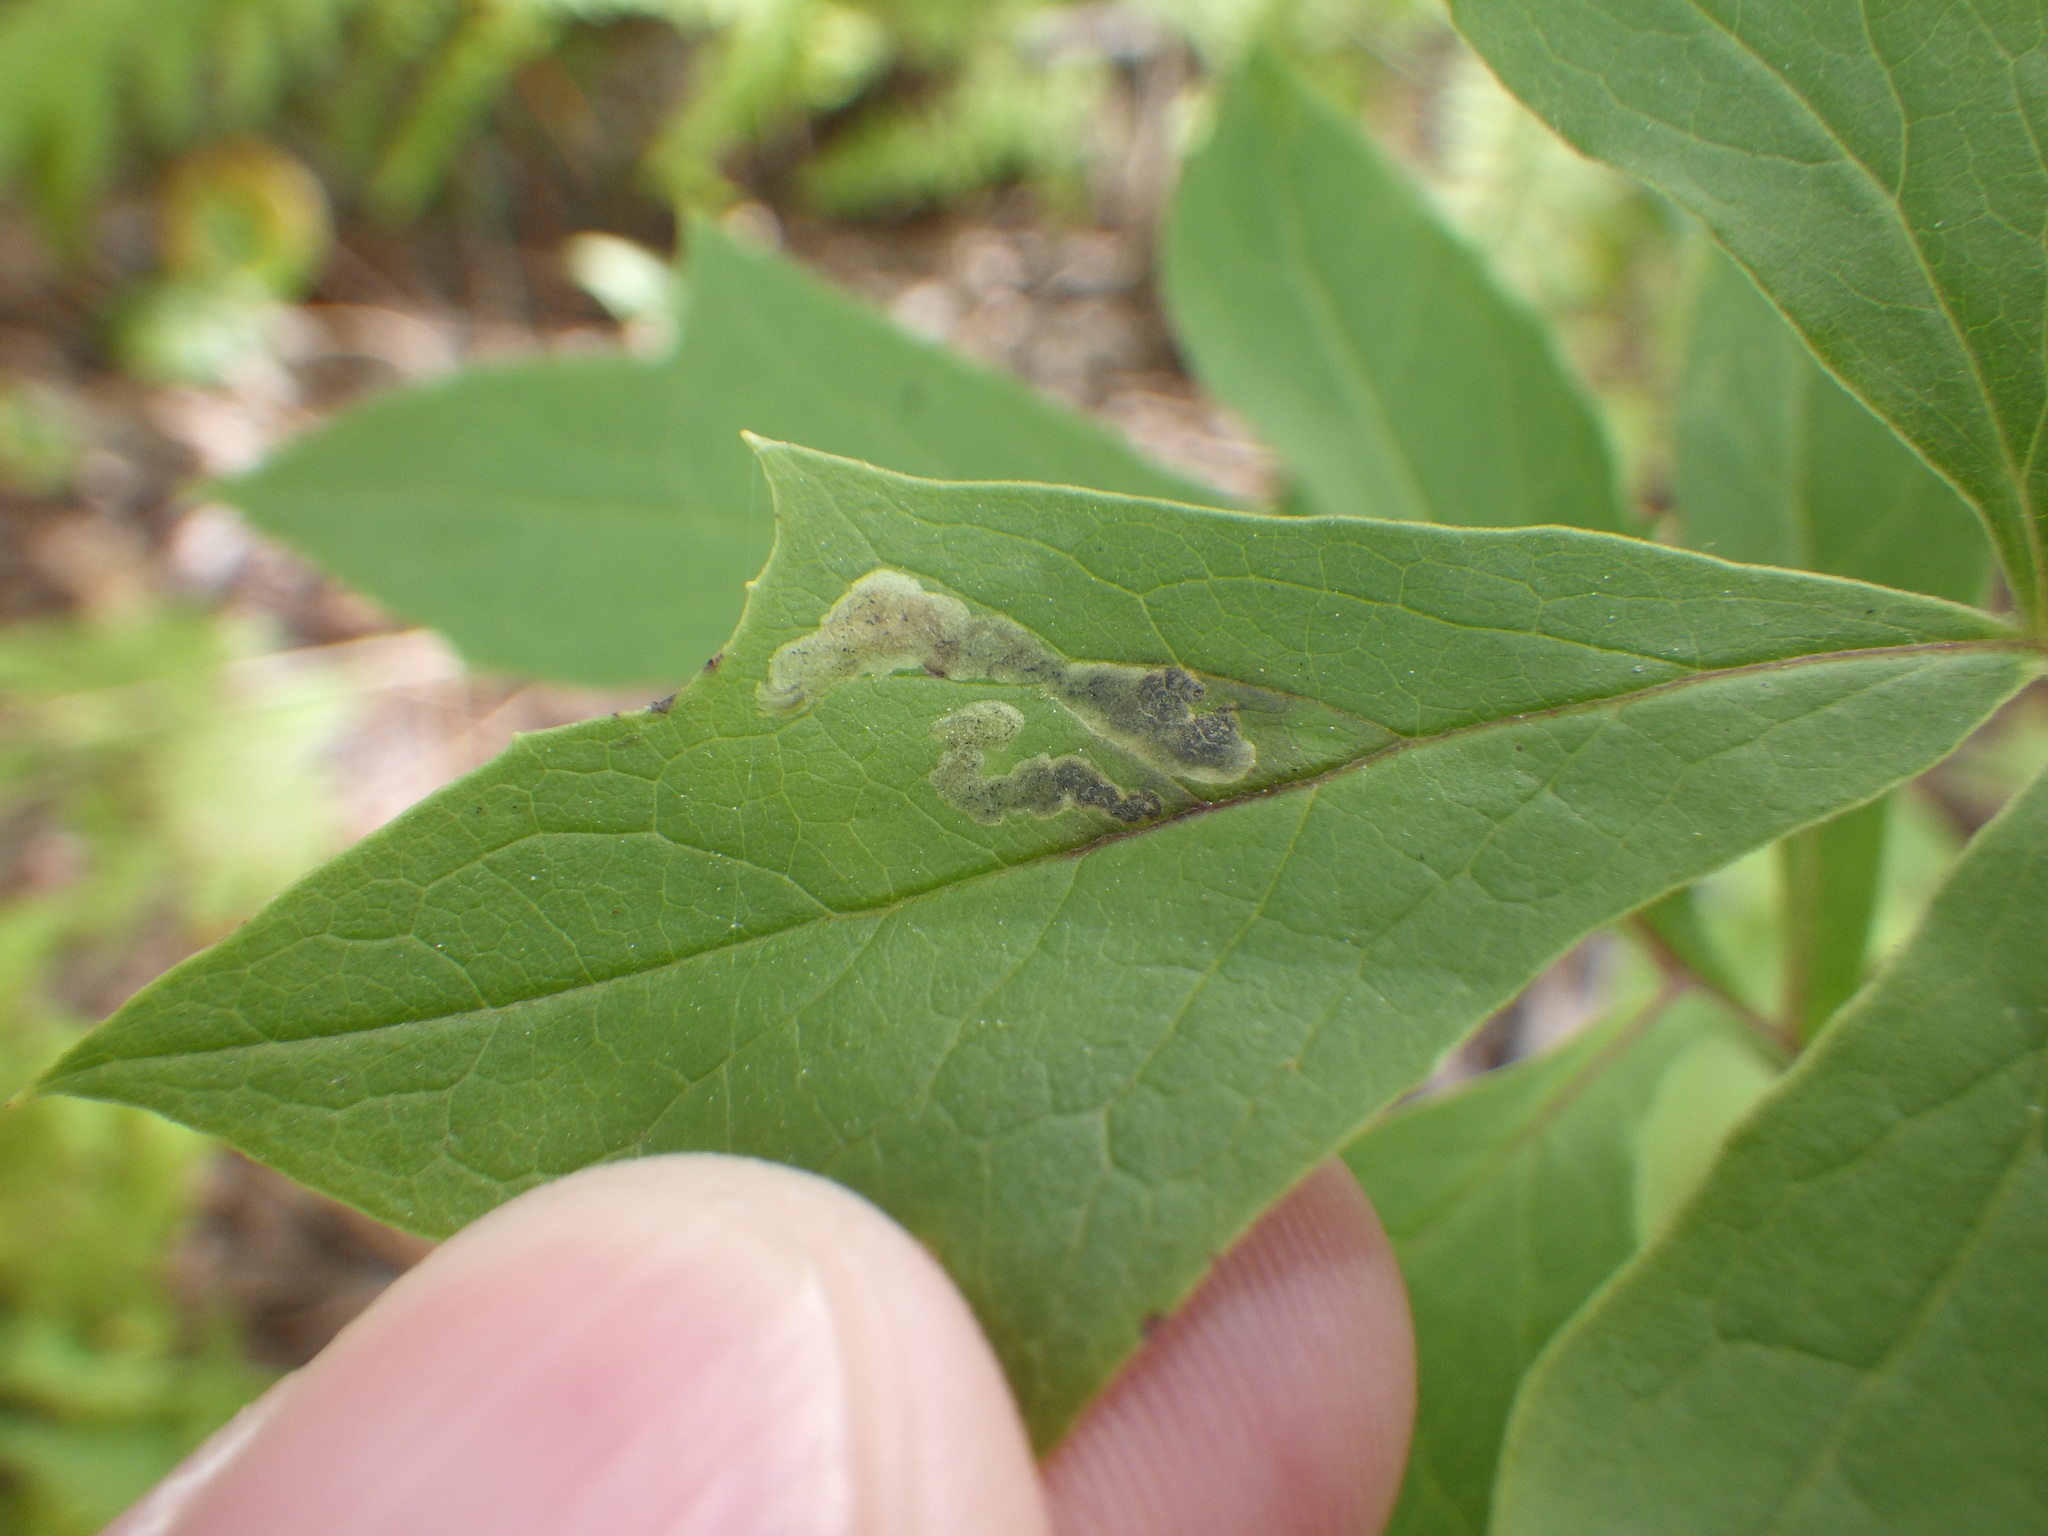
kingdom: Animalia
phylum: Arthropoda
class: Insecta
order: Diptera
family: Agromyzidae
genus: Liriomyza
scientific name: Liriomyza orilliensis
